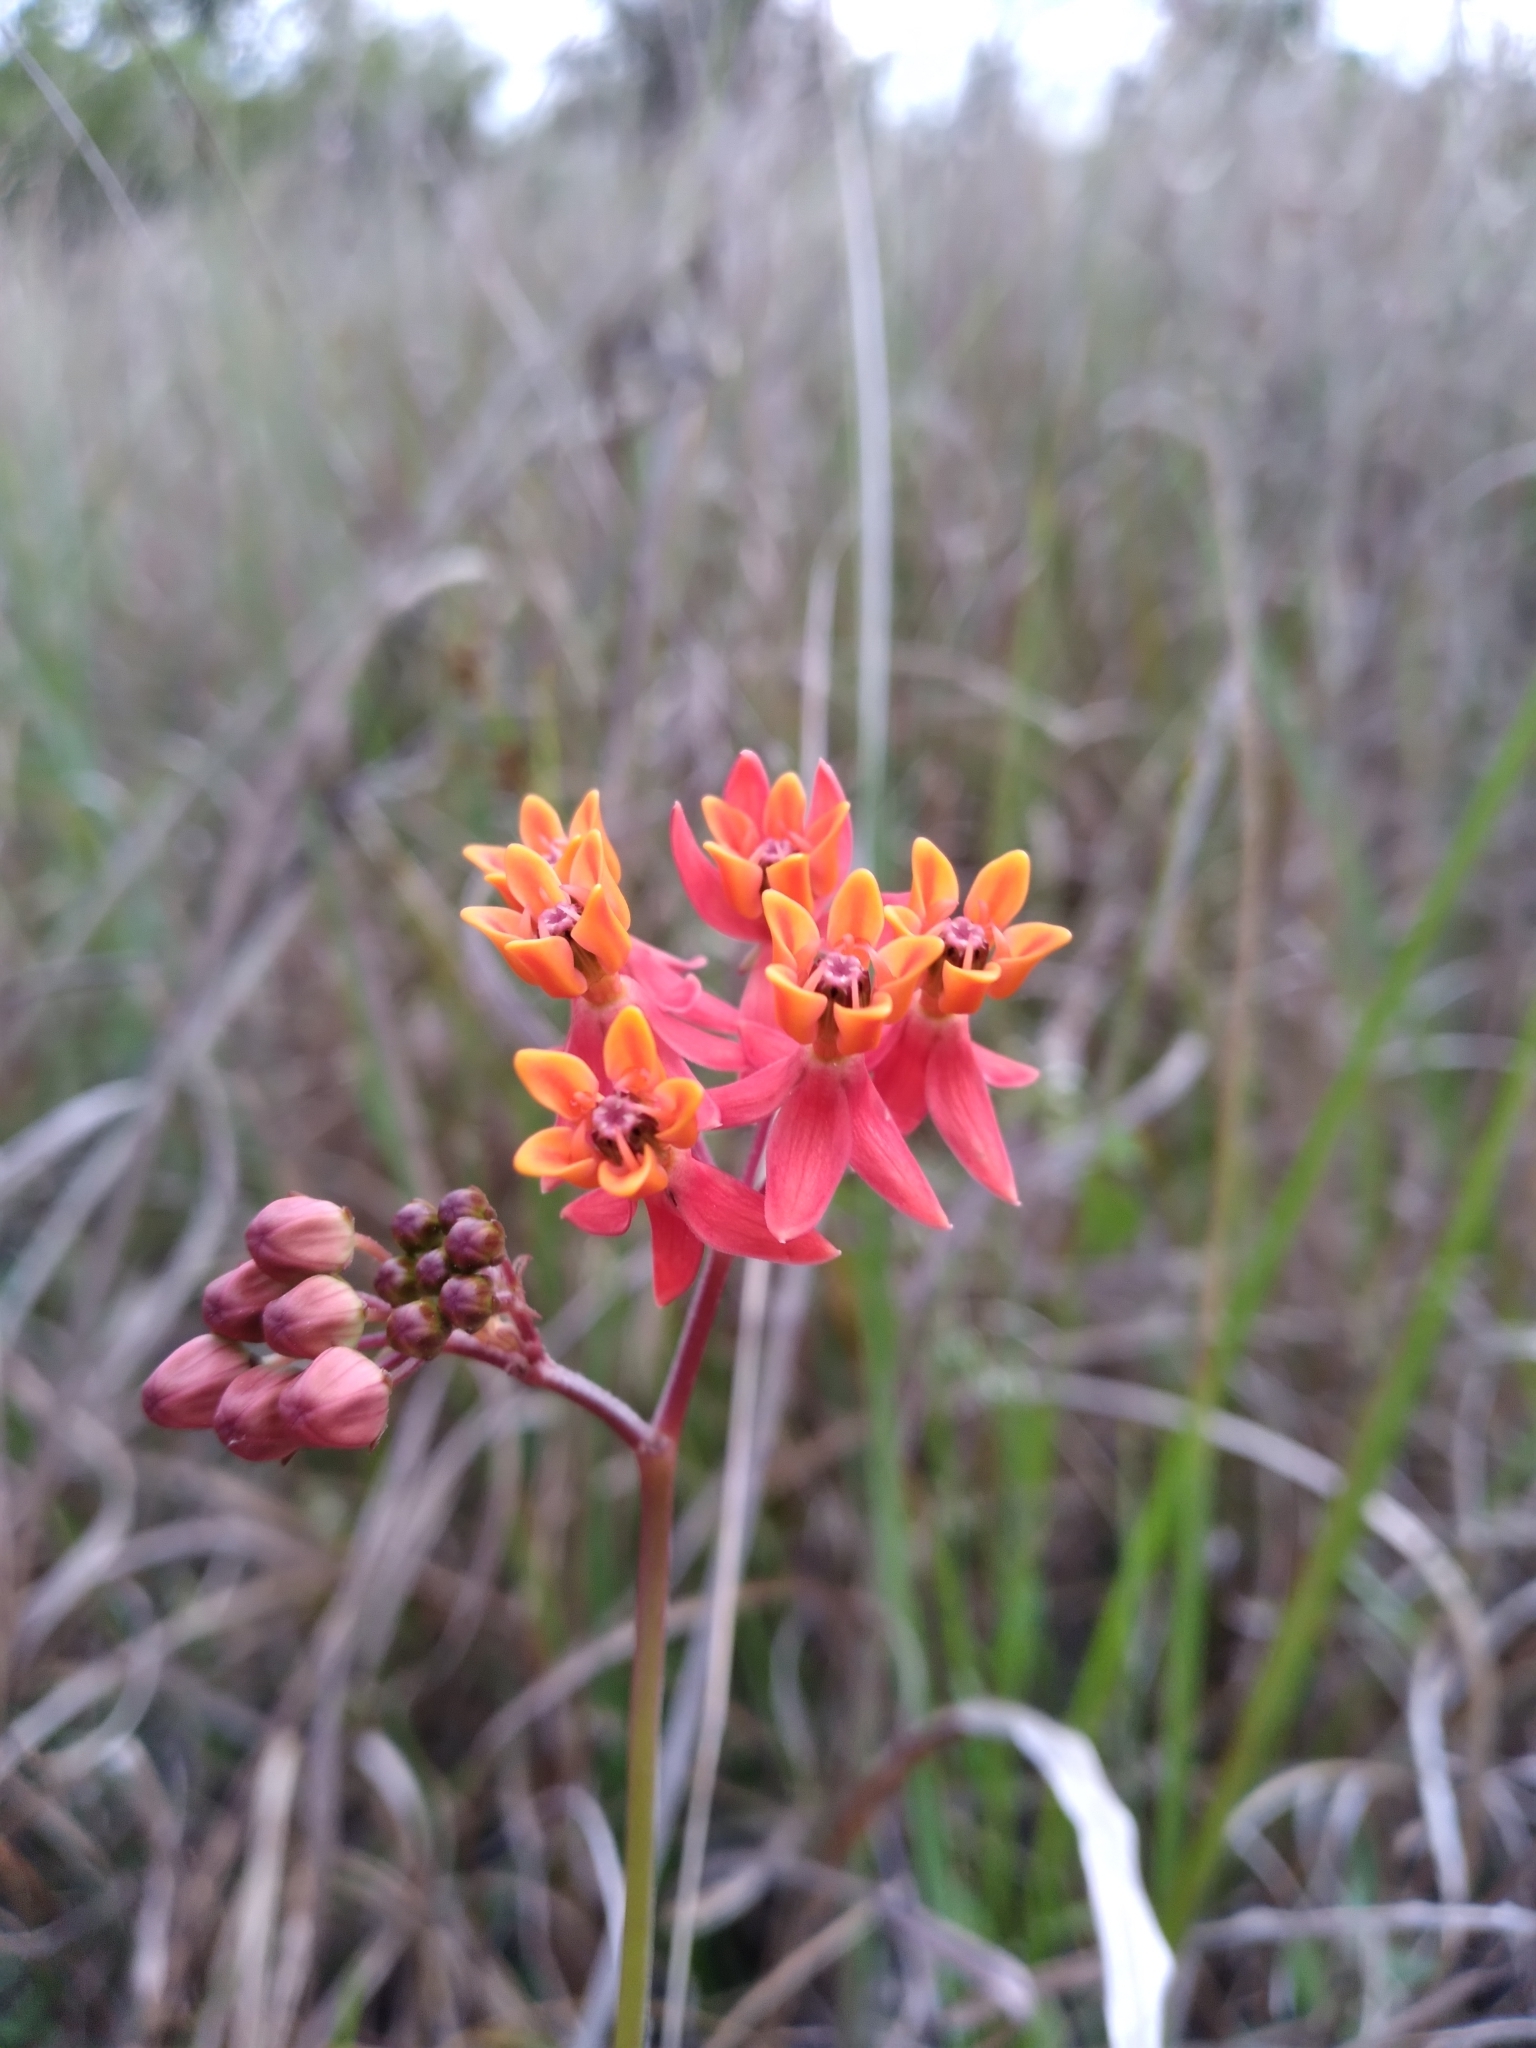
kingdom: Plantae
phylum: Tracheophyta
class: Magnoliopsida
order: Gentianales
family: Apocynaceae
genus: Asclepias
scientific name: Asclepias lanceolata
